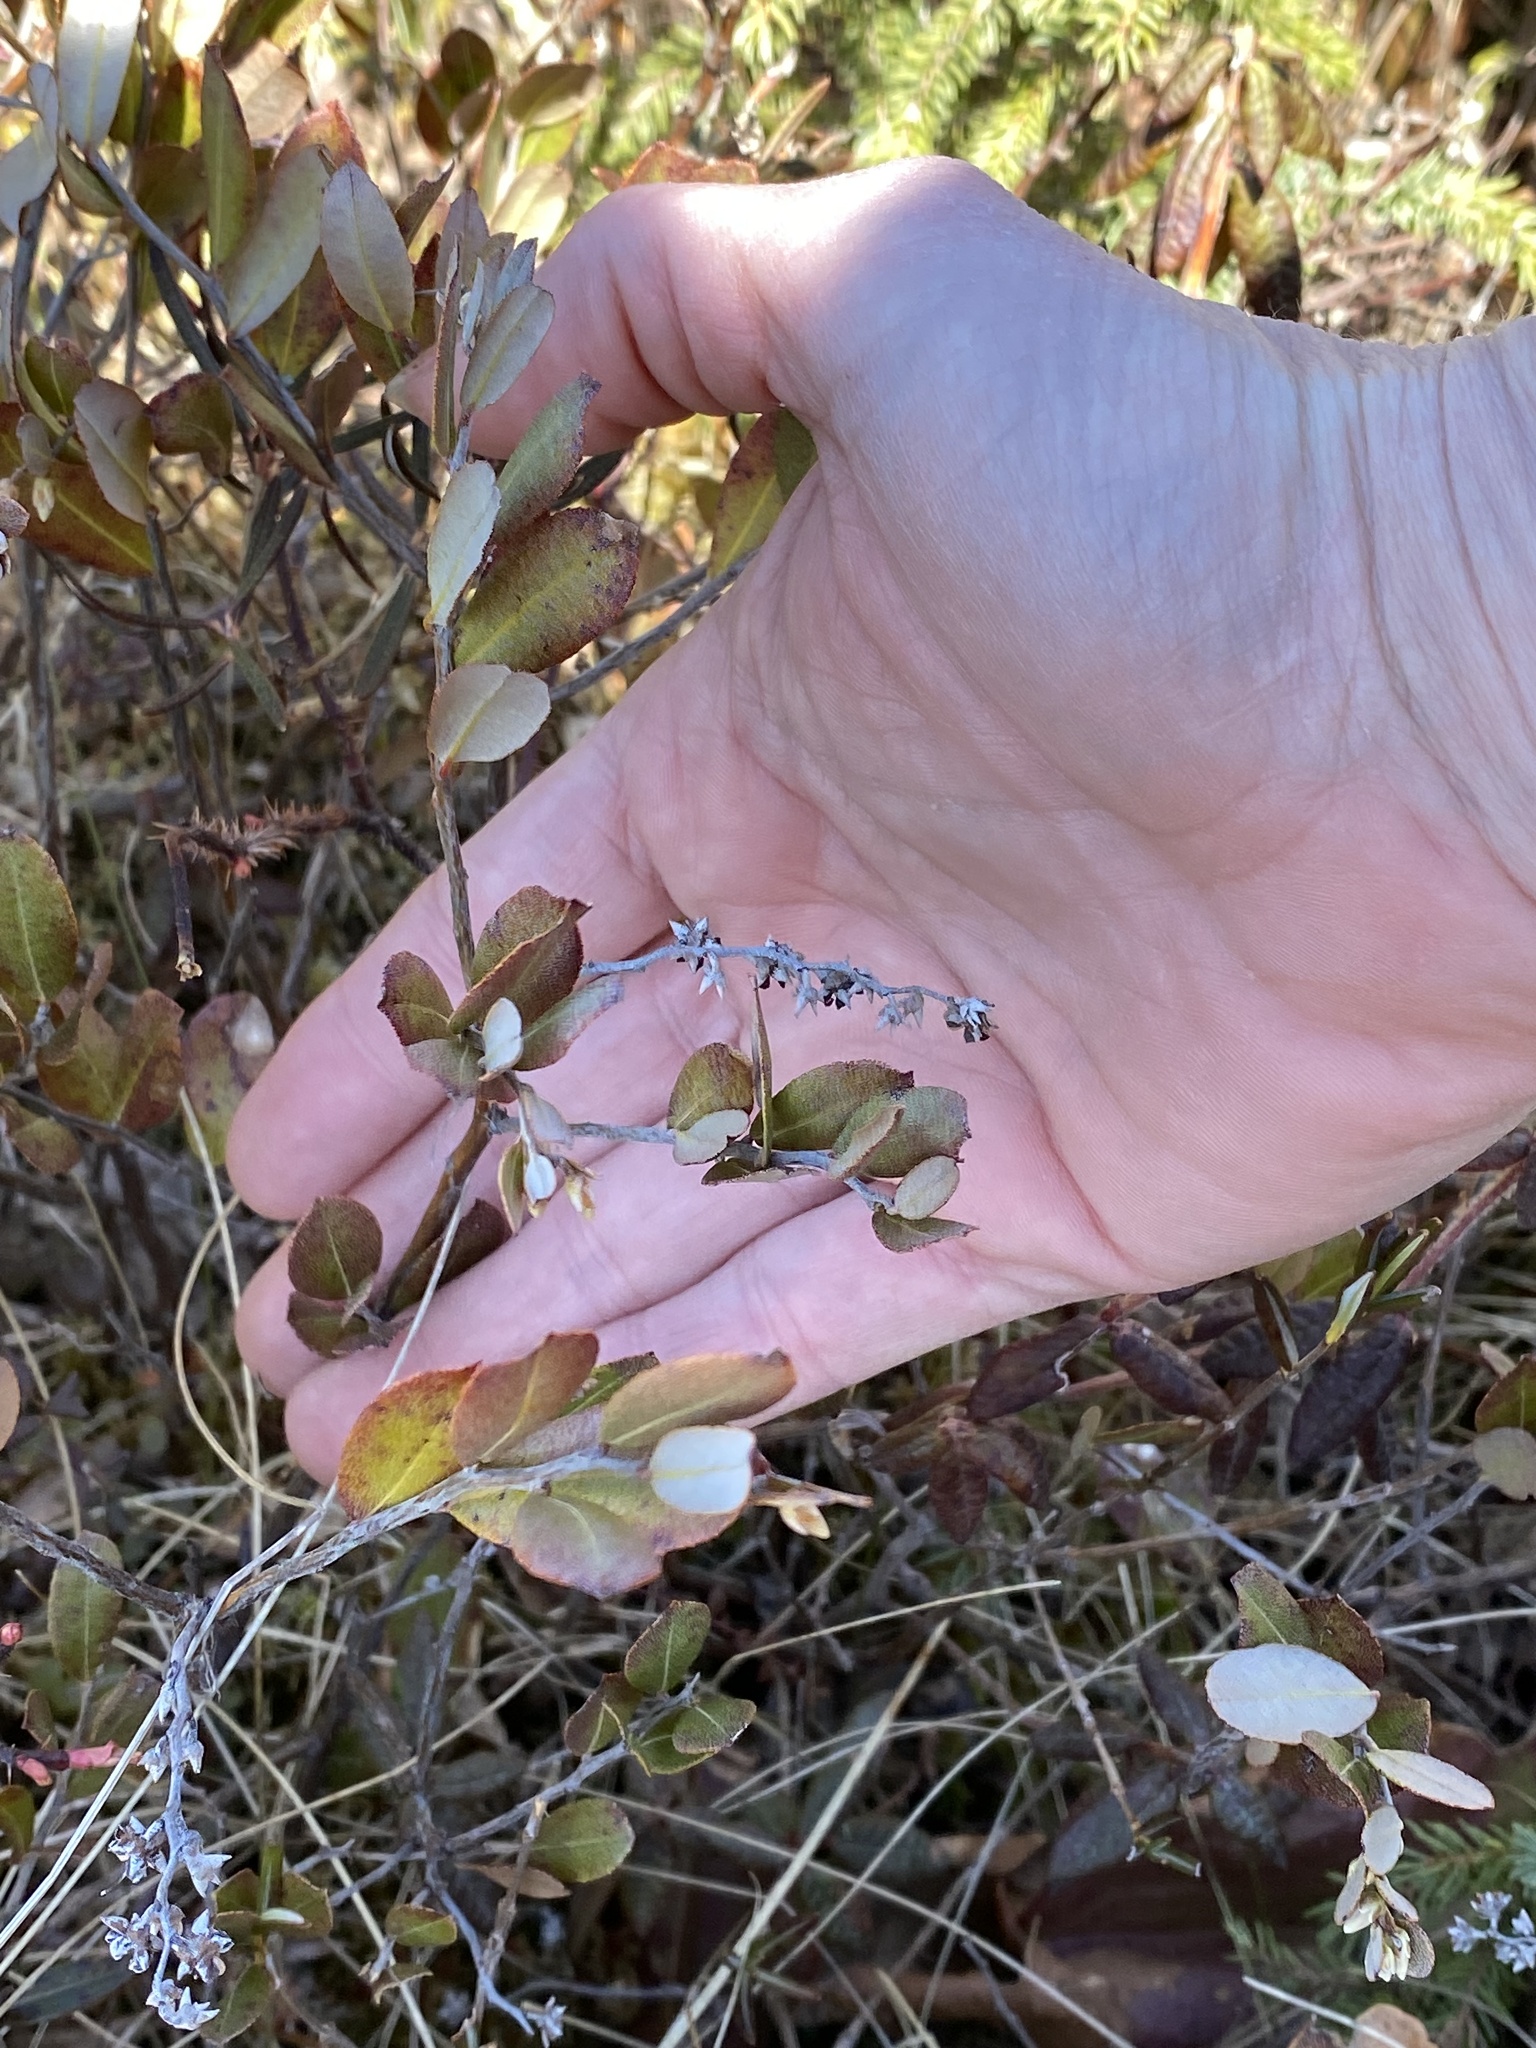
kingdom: Plantae
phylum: Tracheophyta
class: Magnoliopsida
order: Ericales
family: Ericaceae
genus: Chamaedaphne
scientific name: Chamaedaphne calyculata
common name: Leatherleaf
